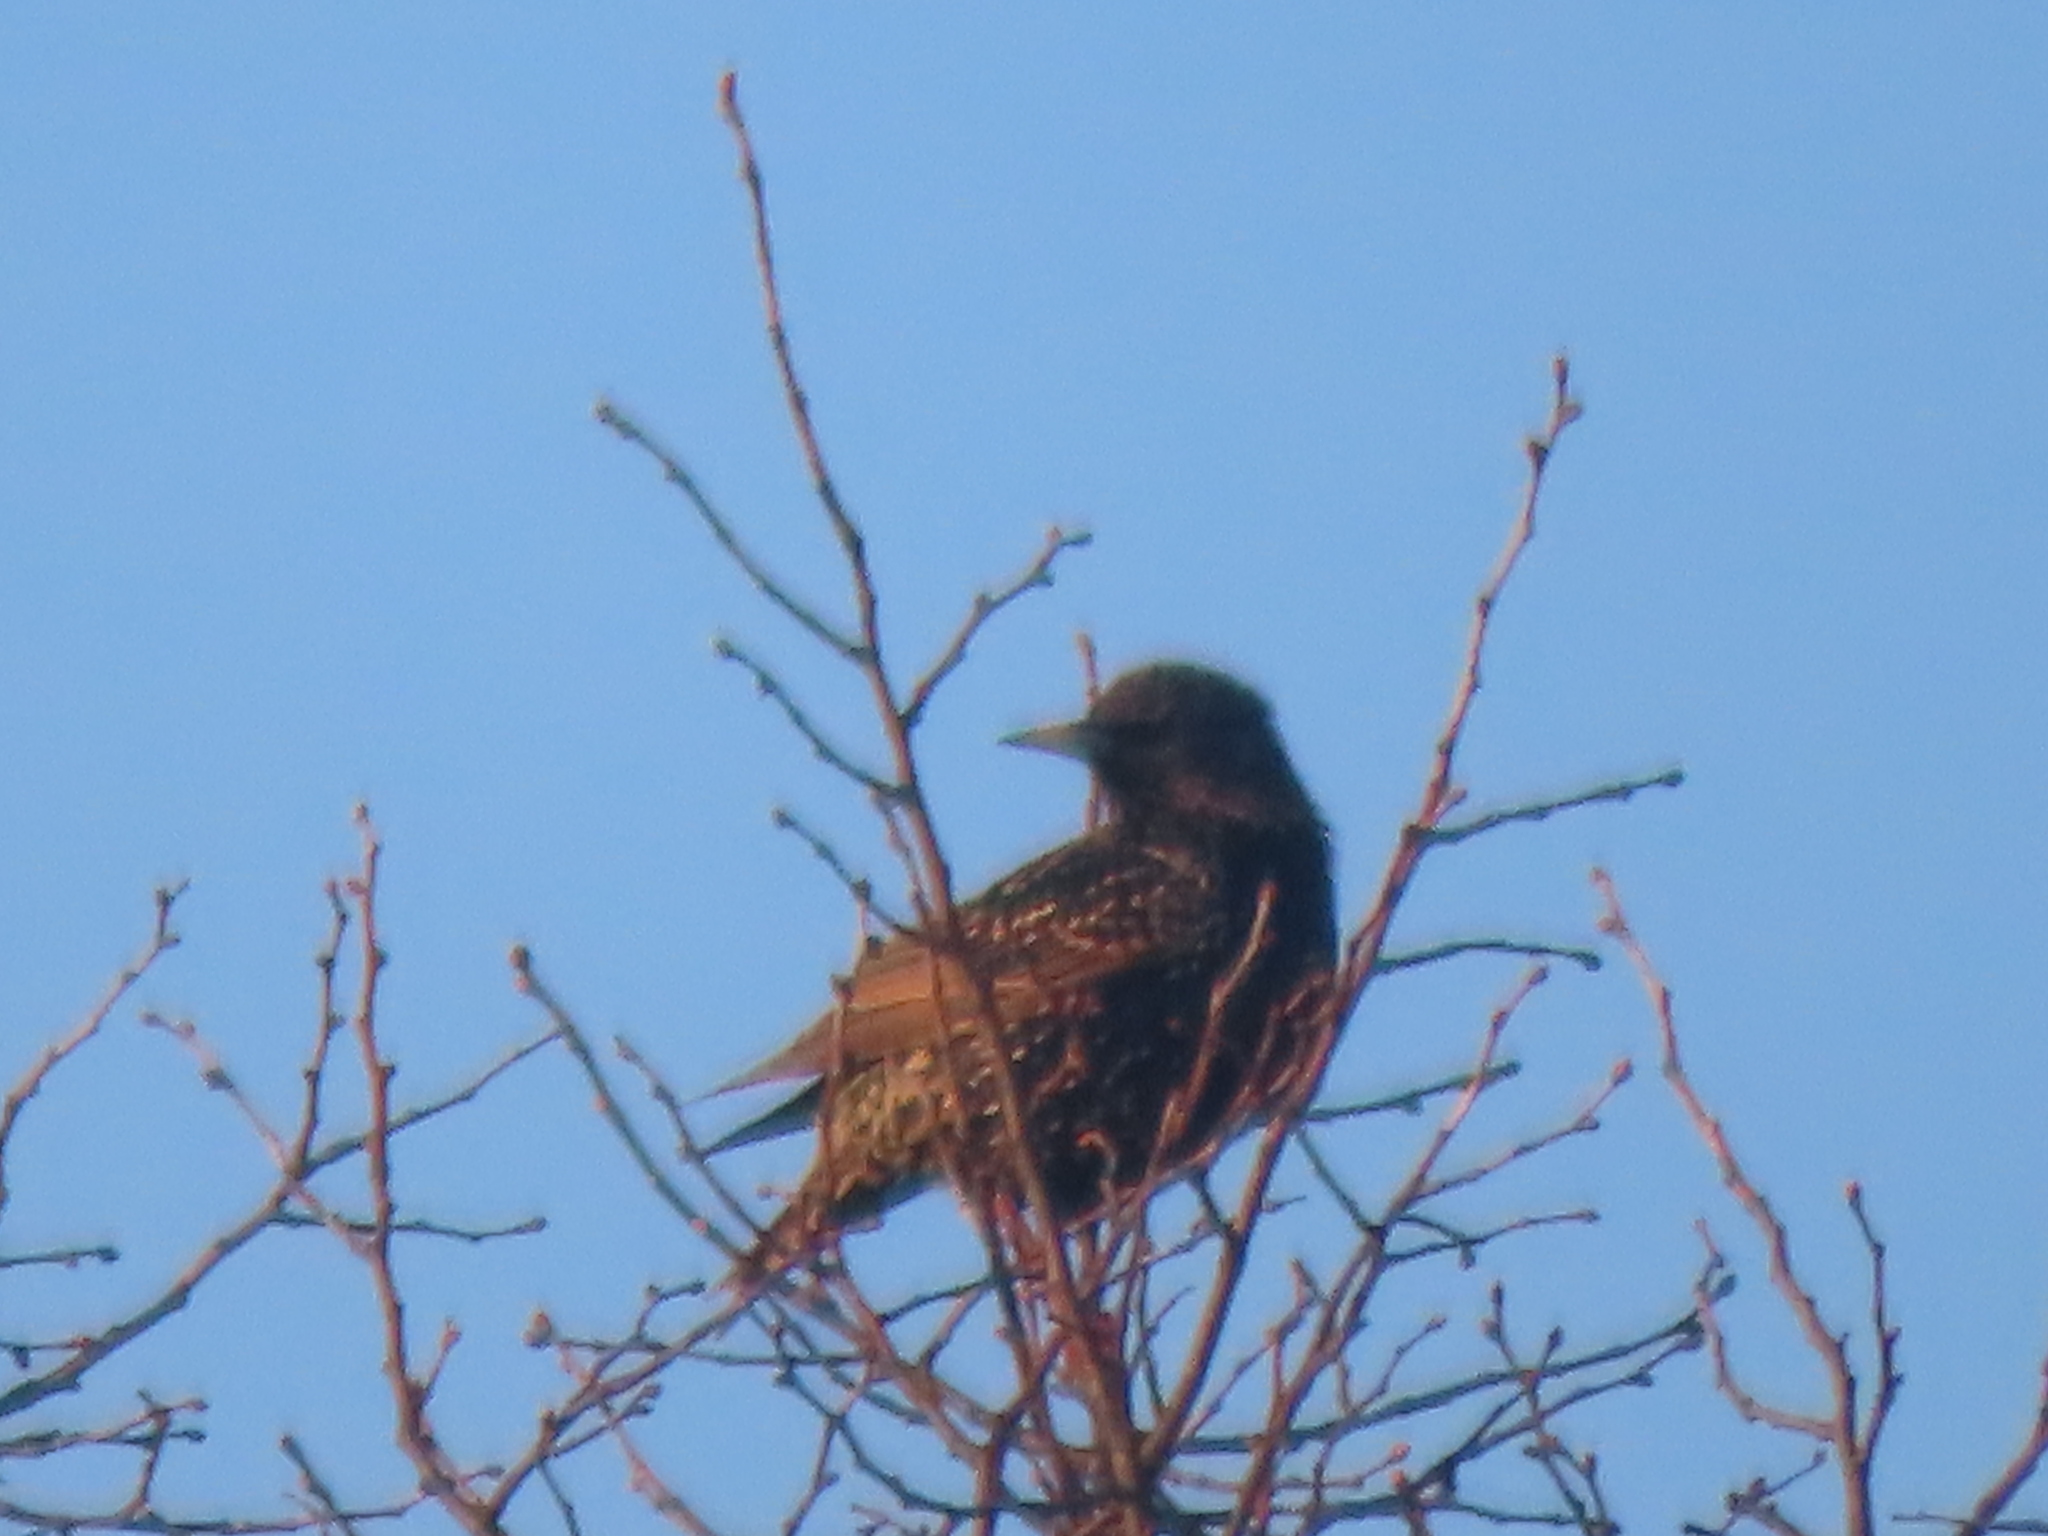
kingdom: Animalia
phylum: Chordata
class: Aves
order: Passeriformes
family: Sturnidae
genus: Sturnus
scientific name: Sturnus vulgaris
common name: Common starling
